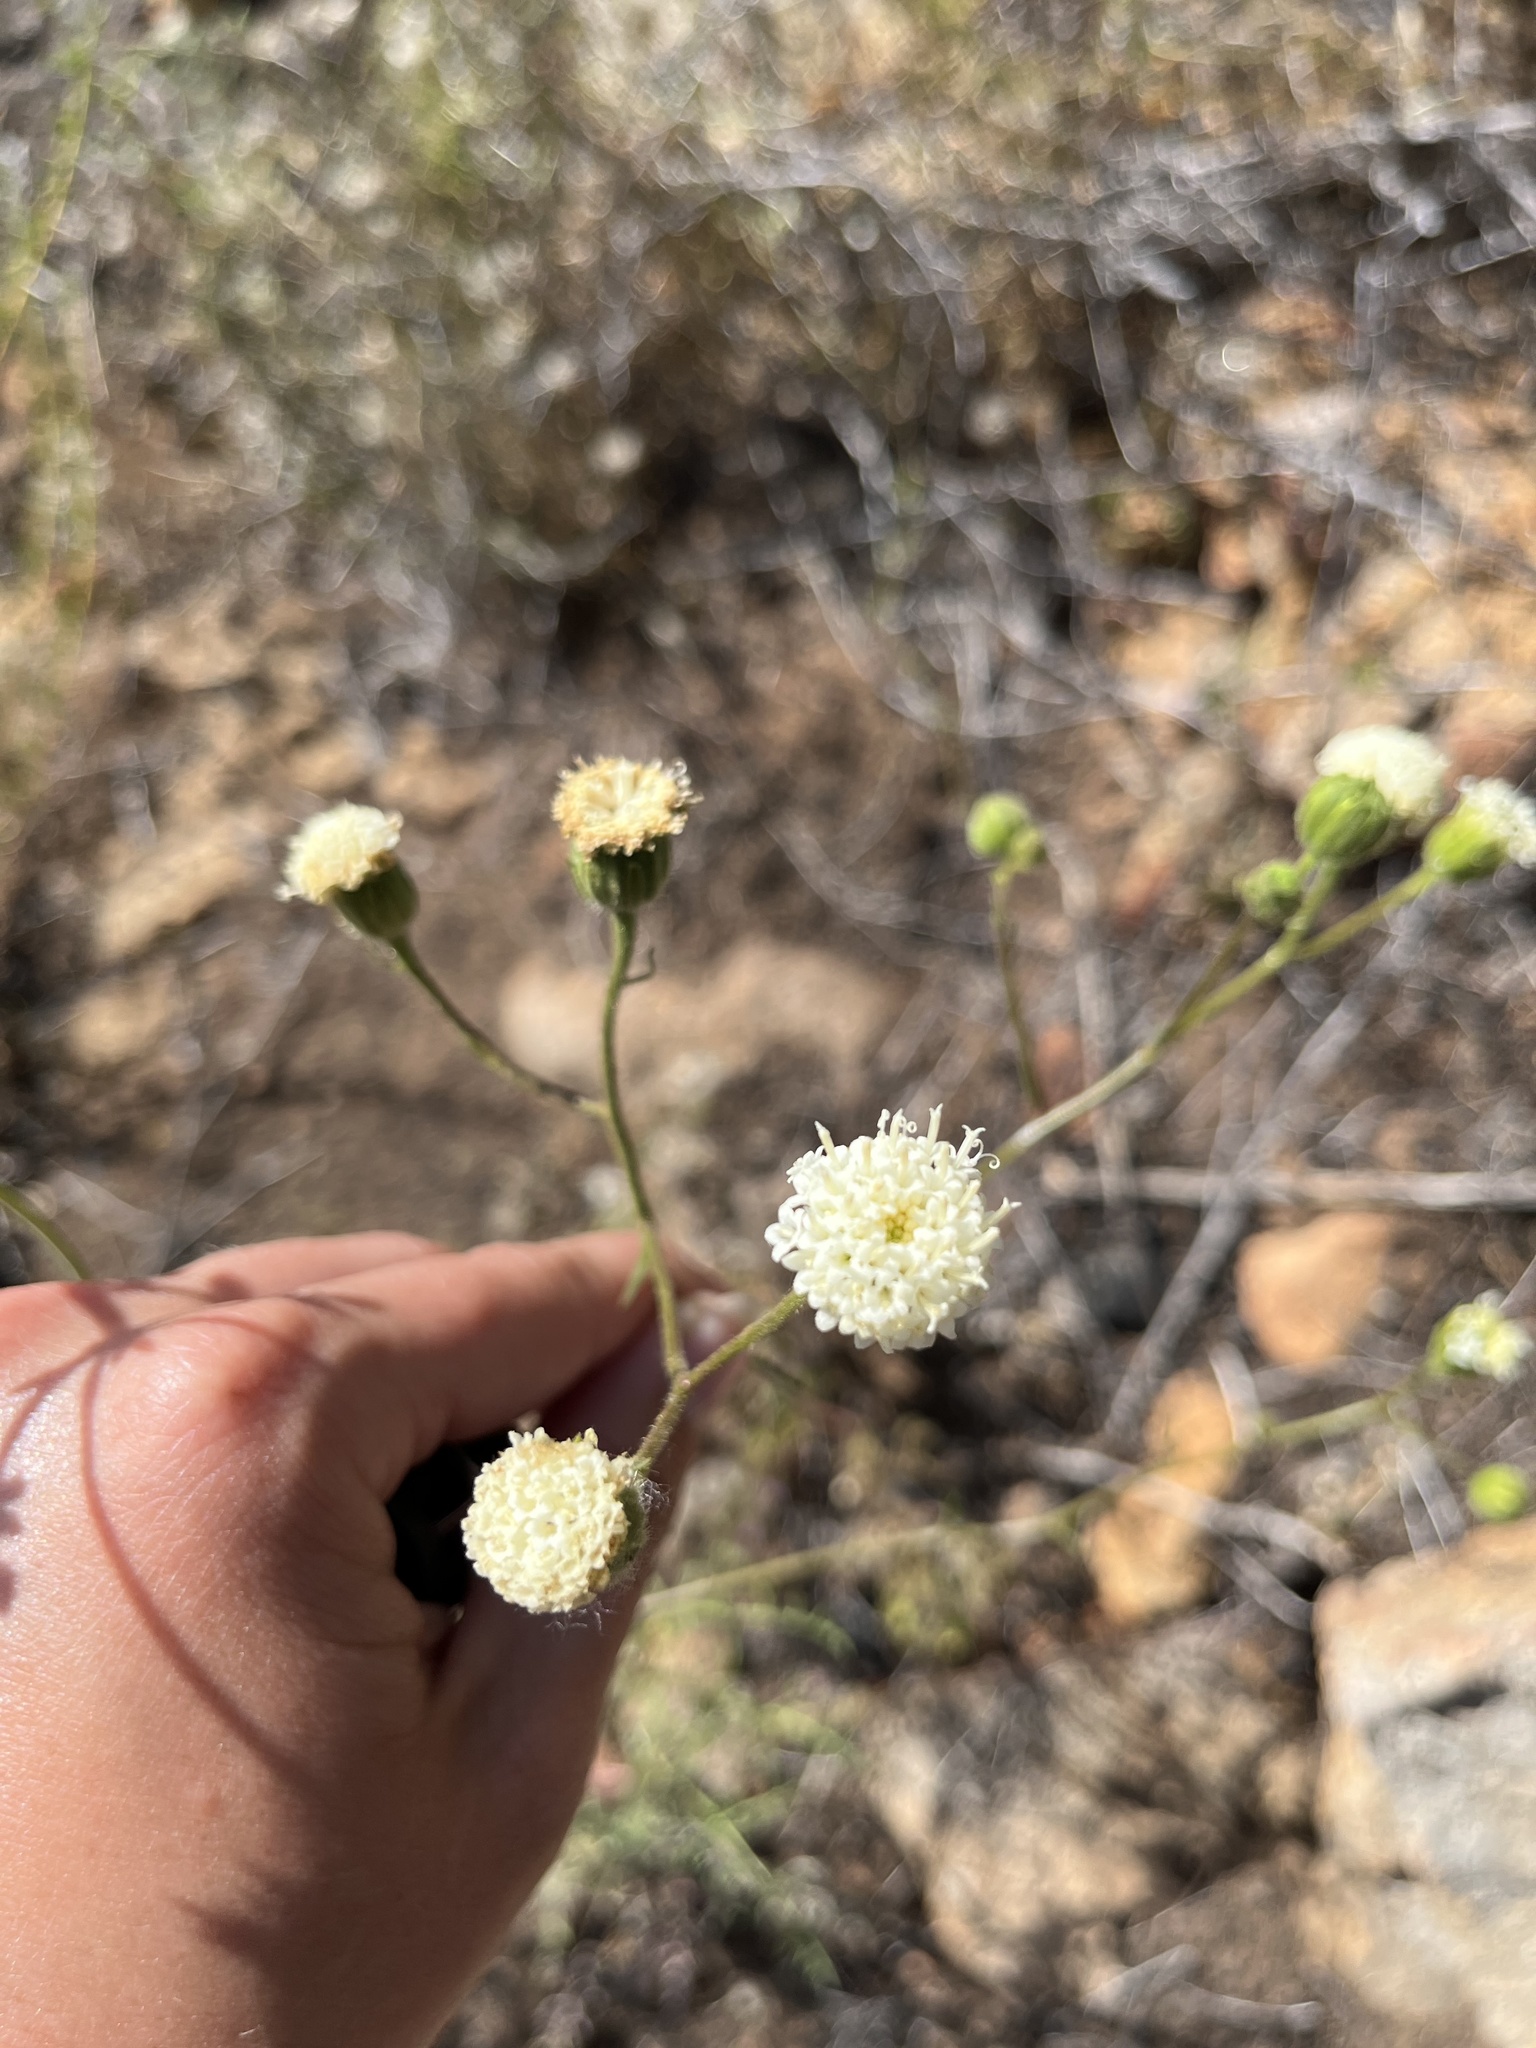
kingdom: Plantae
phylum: Tracheophyta
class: Magnoliopsida
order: Asterales
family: Asteraceae
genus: Chaenactis
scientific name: Chaenactis artemisiifolia
